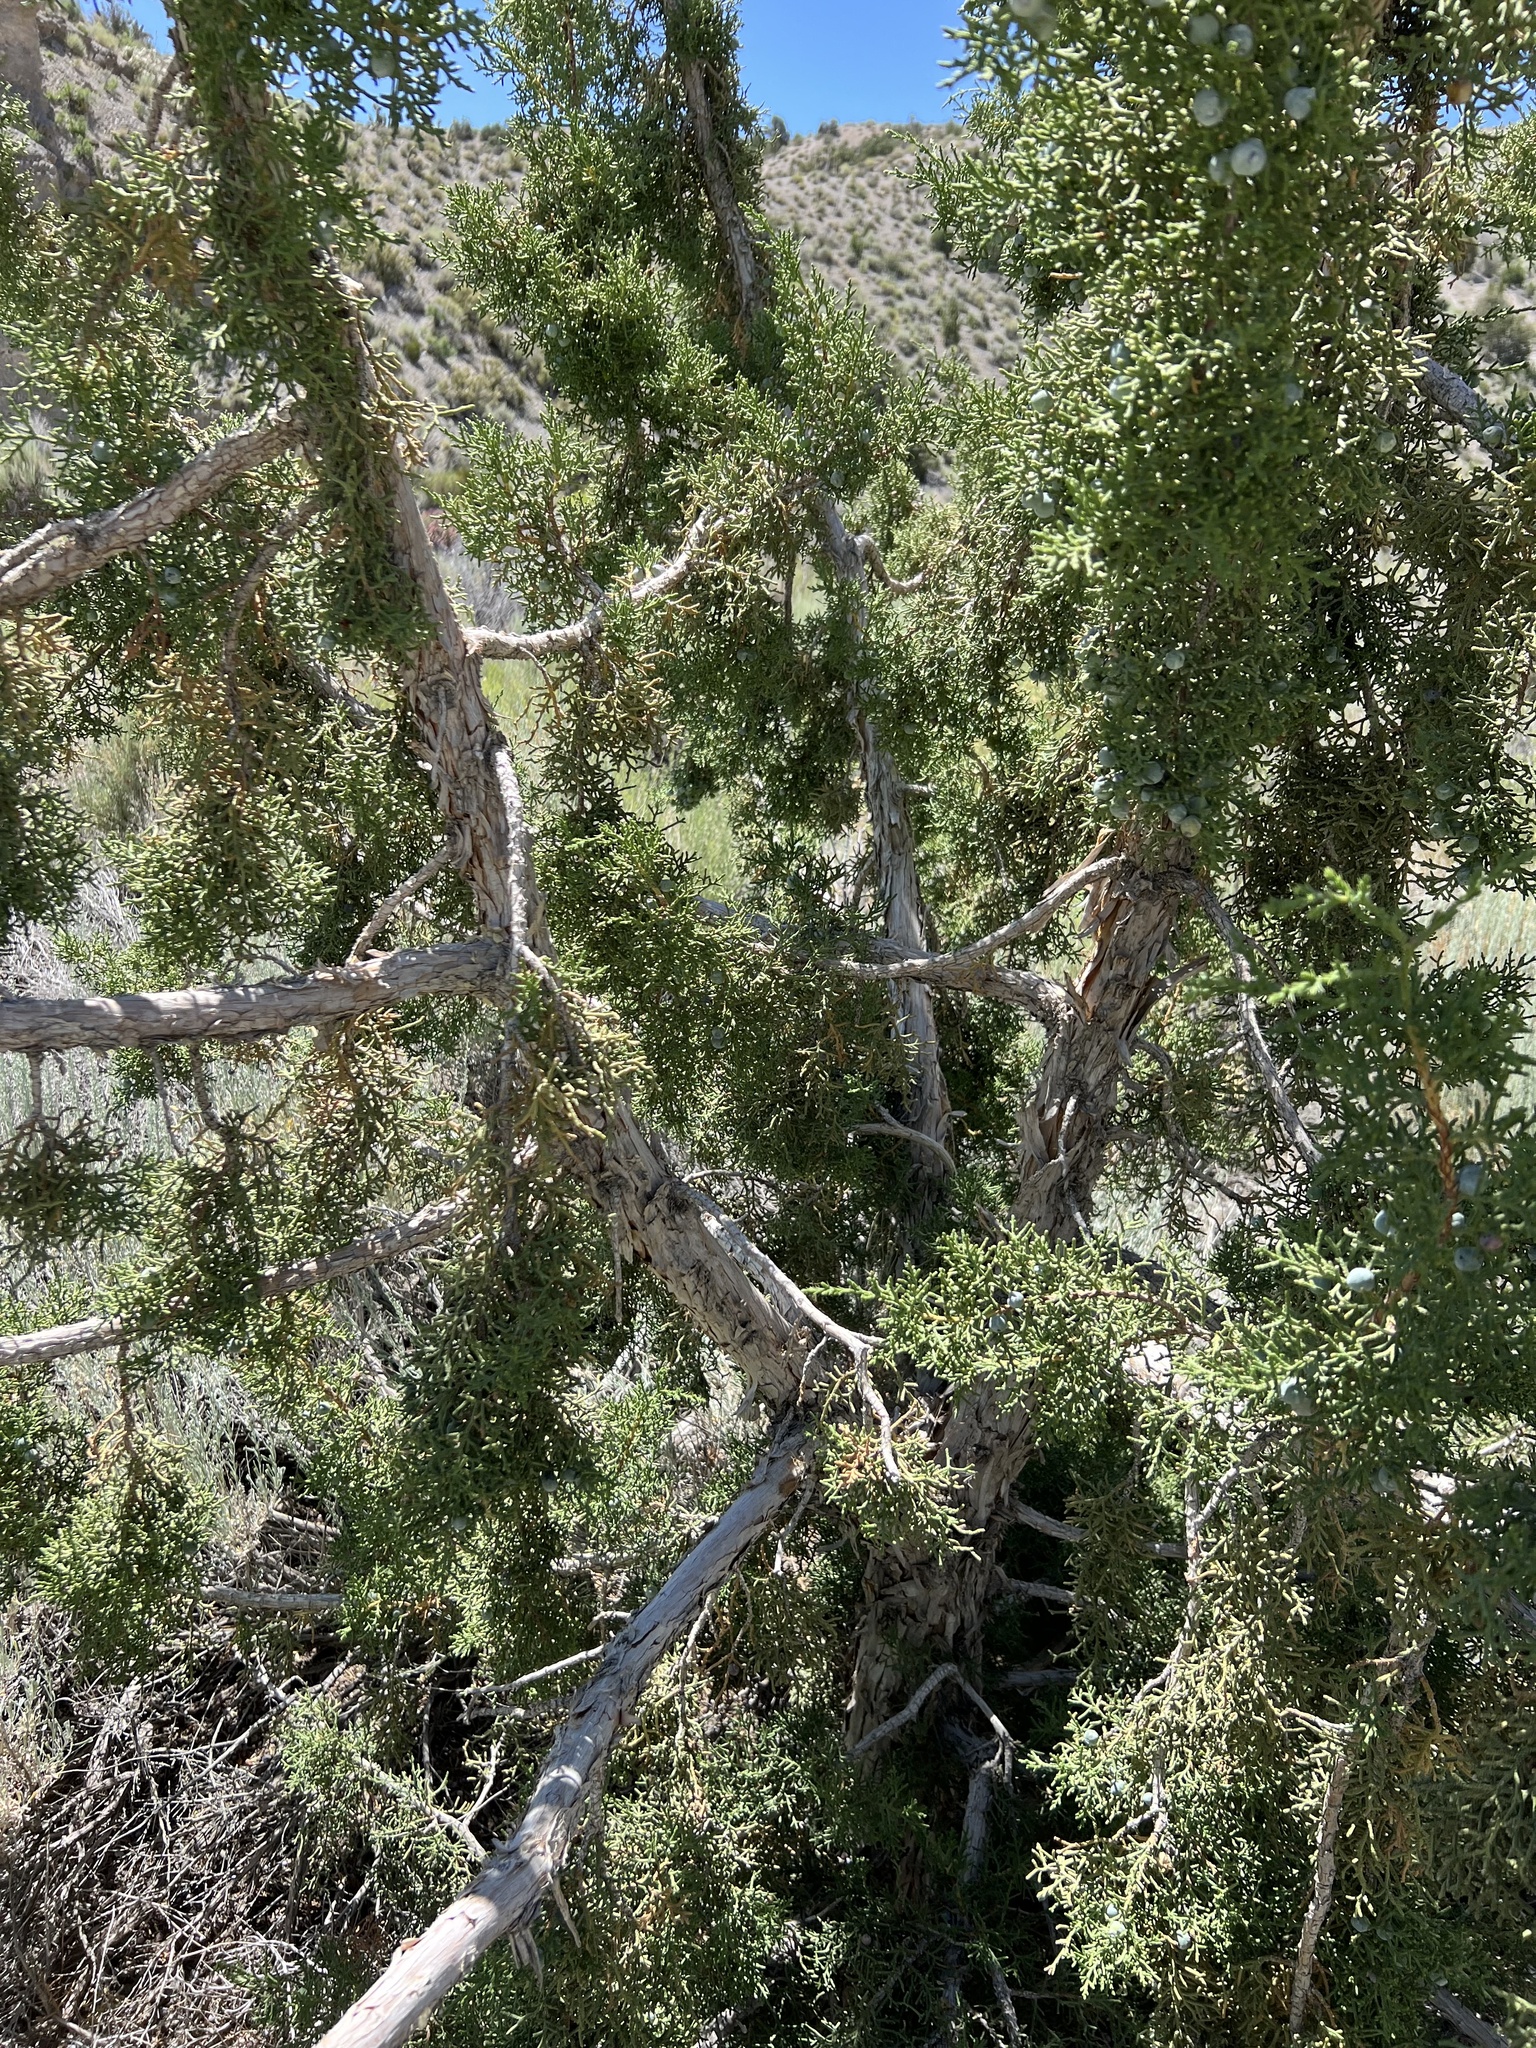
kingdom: Plantae
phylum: Tracheophyta
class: Pinopsida
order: Pinales
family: Cupressaceae
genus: Juniperus
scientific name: Juniperus osteosperma
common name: Utah juniper
